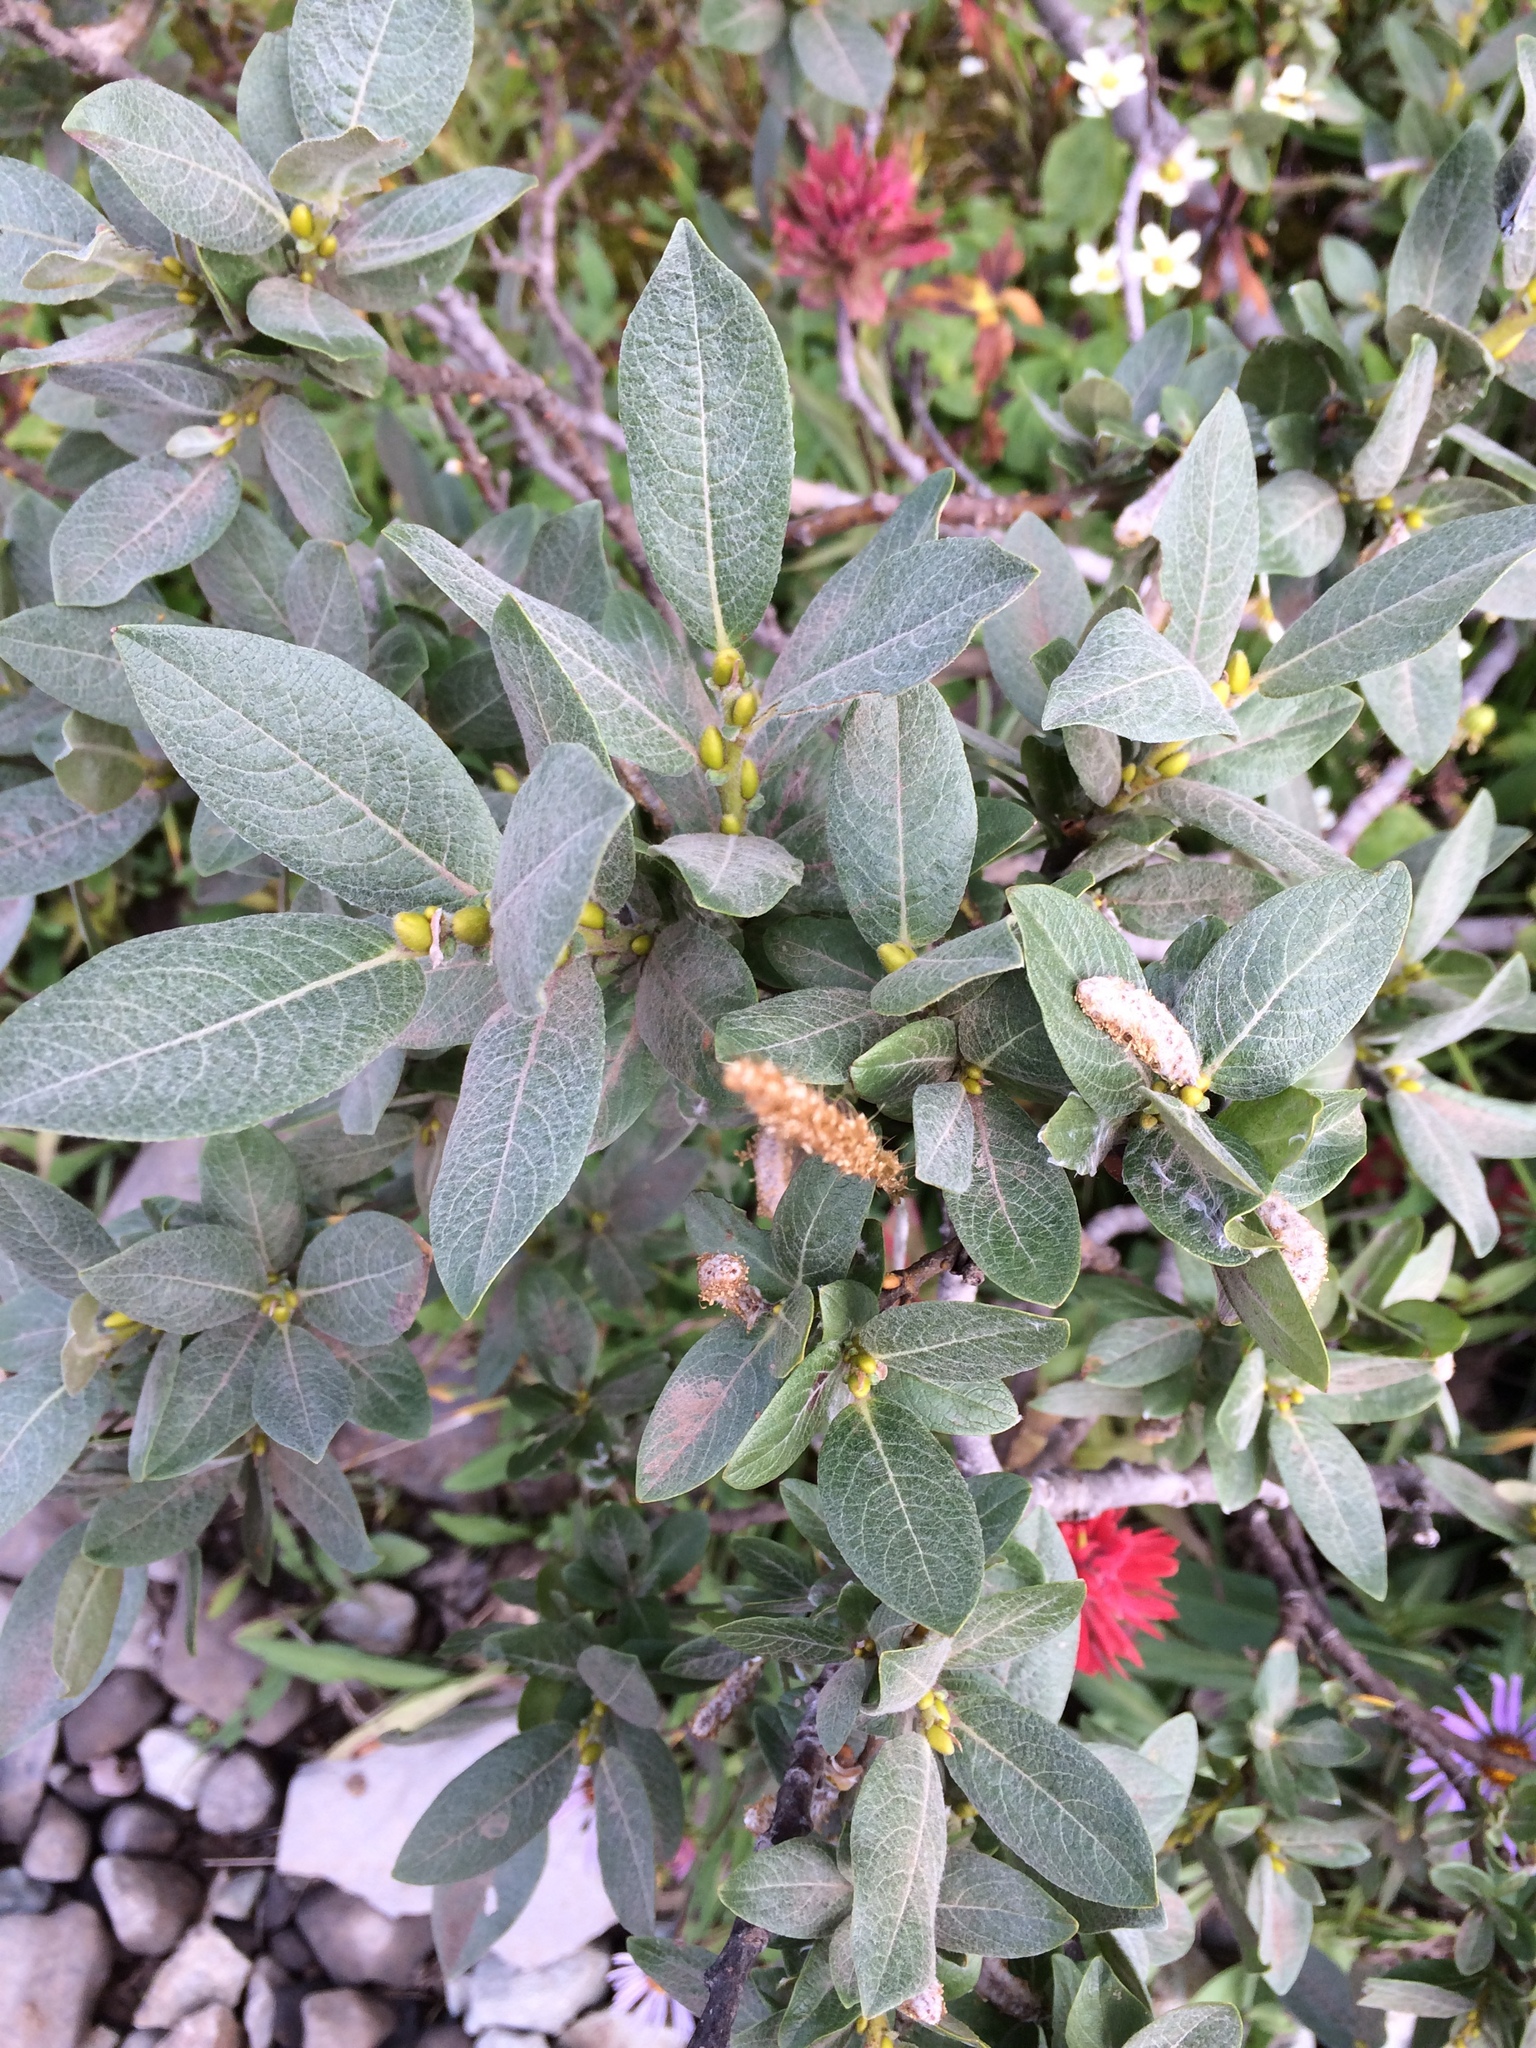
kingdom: Plantae
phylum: Tracheophyta
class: Magnoliopsida
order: Malpighiales
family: Salicaceae
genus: Salix
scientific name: Salix commutata
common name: Under-green willow
